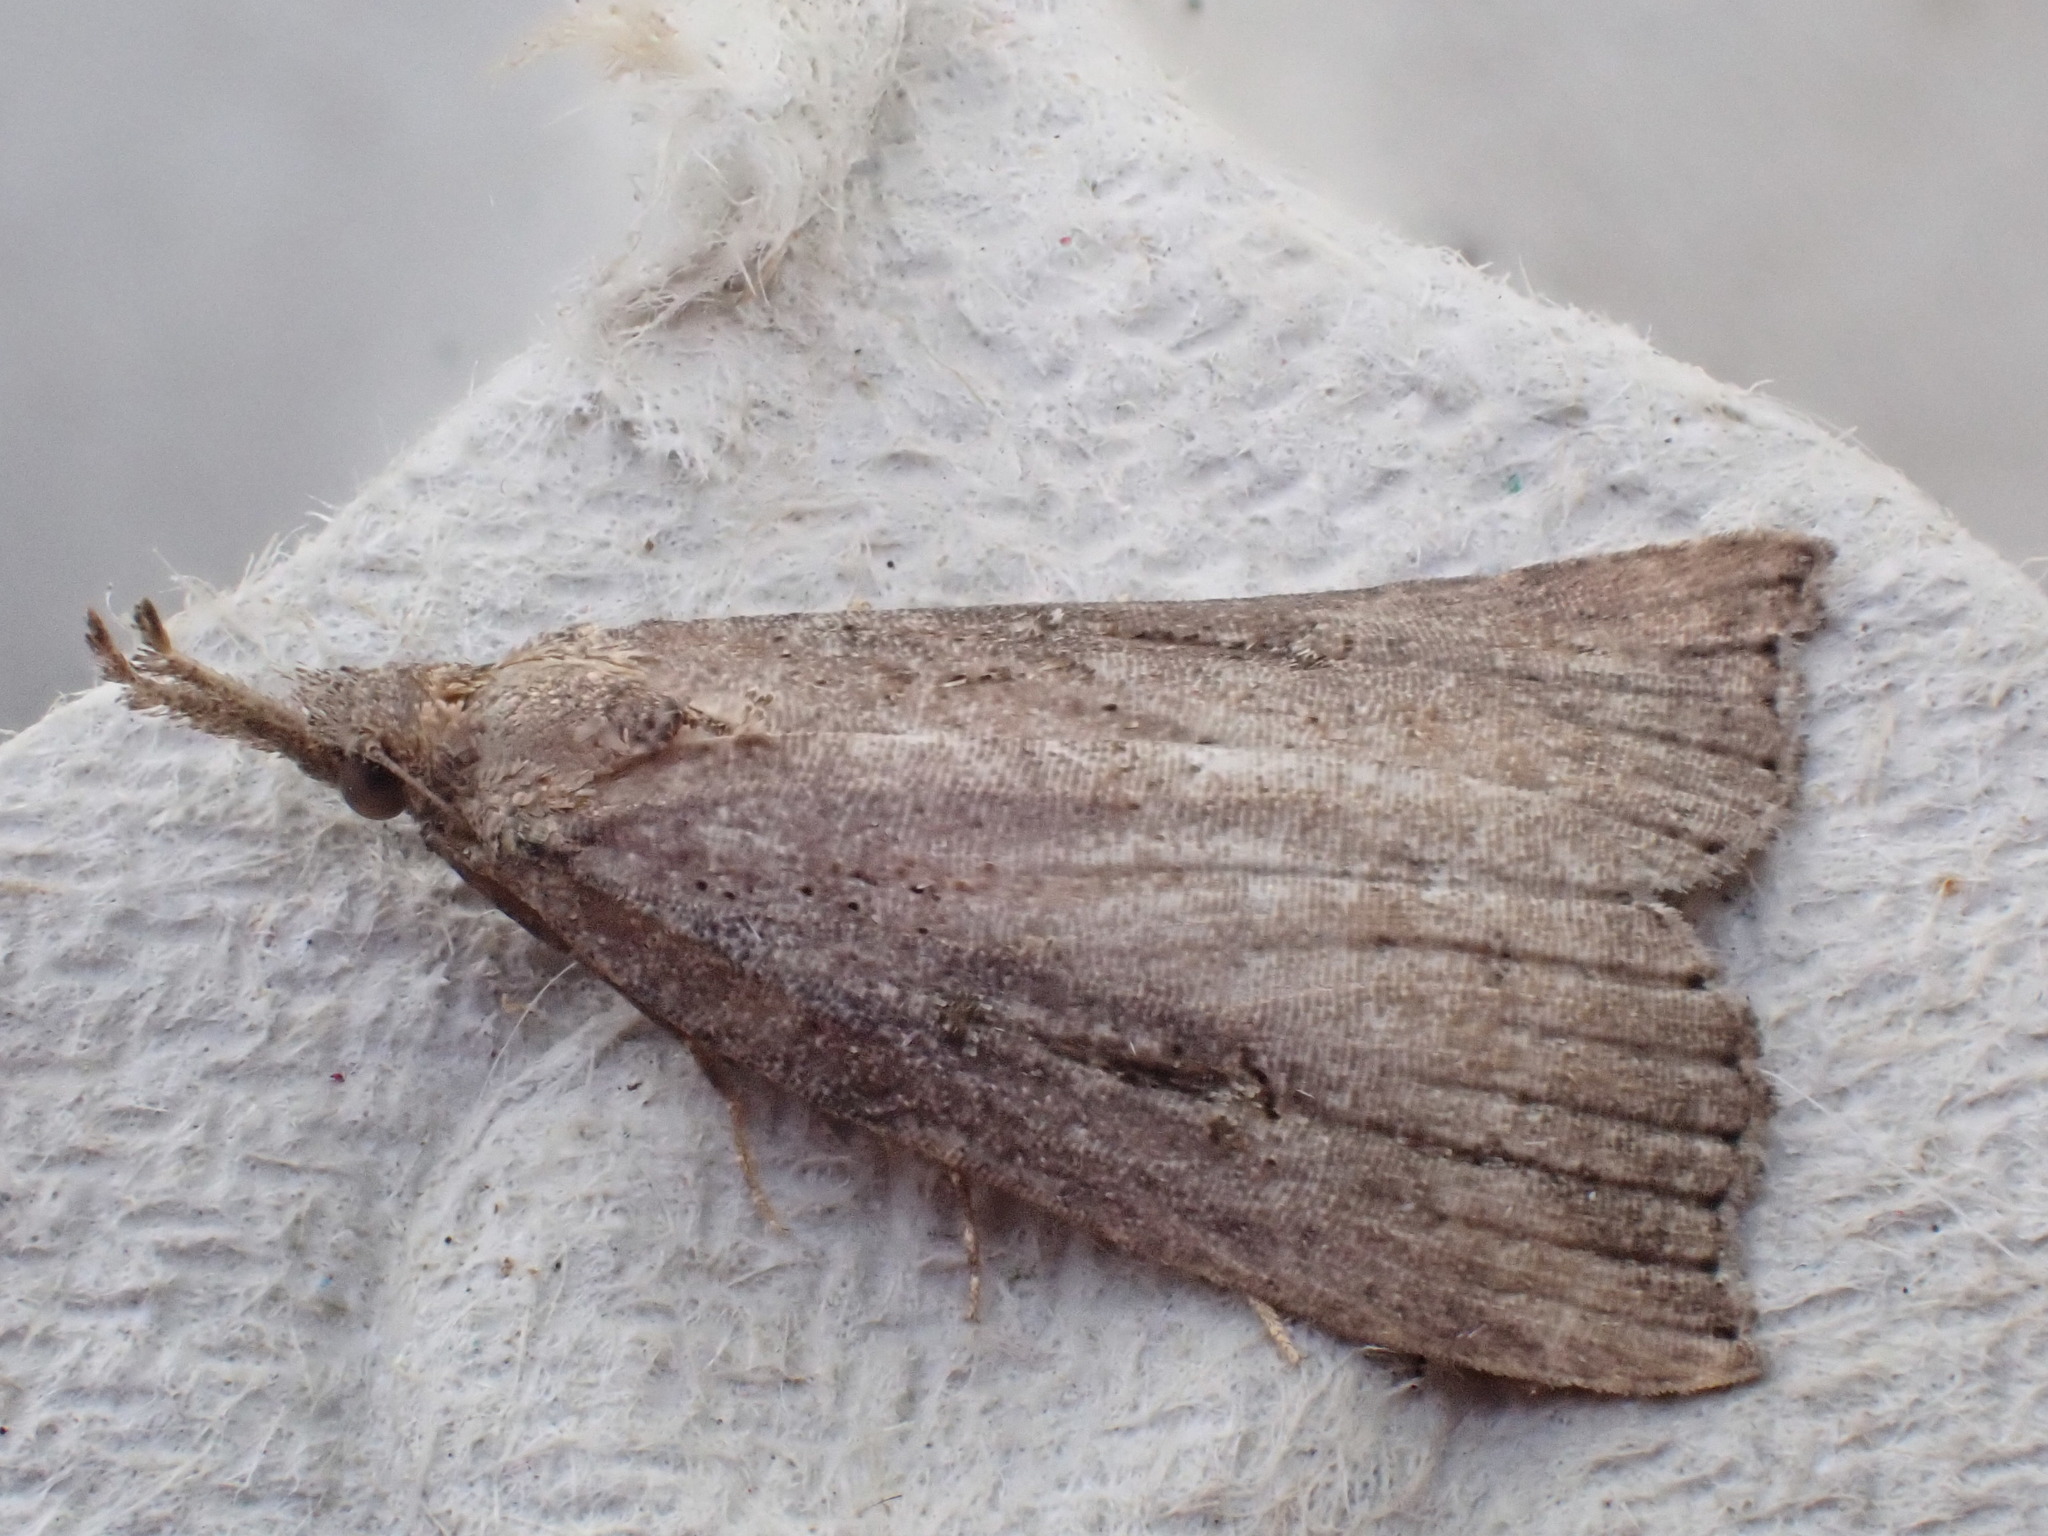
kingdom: Animalia
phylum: Arthropoda
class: Insecta
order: Lepidoptera
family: Erebidae
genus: Hypena
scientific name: Hypena rostralis
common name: Buttoned snout
